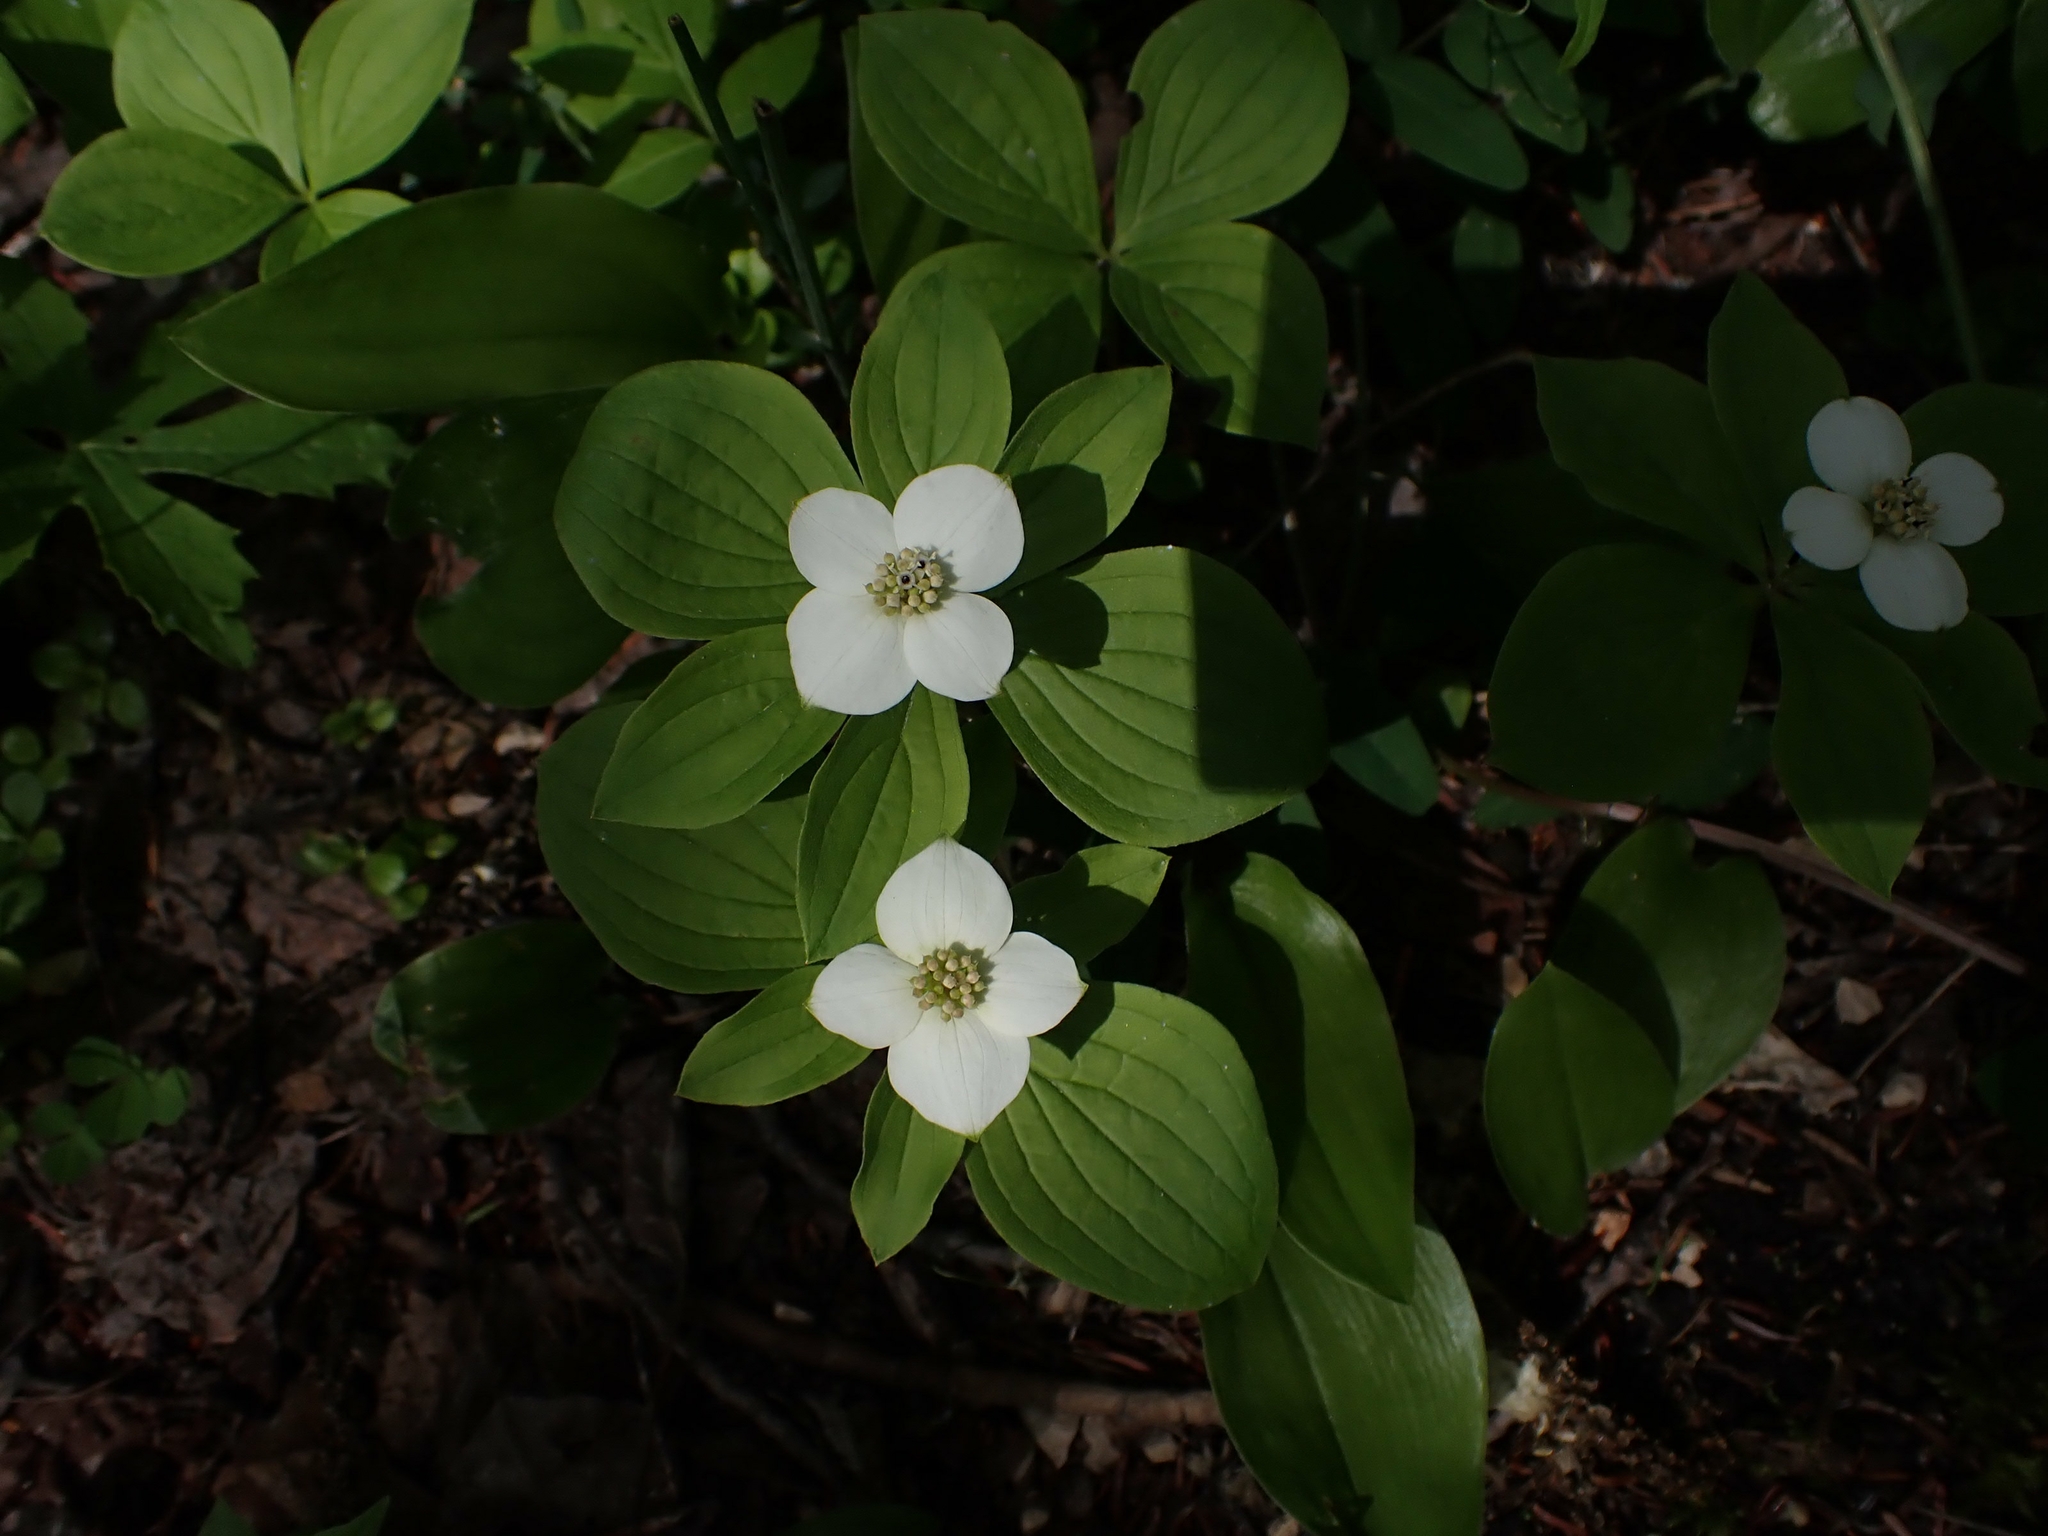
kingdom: Plantae
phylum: Tracheophyta
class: Magnoliopsida
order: Cornales
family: Cornaceae
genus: Cornus
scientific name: Cornus canadensis
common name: Creeping dogwood
